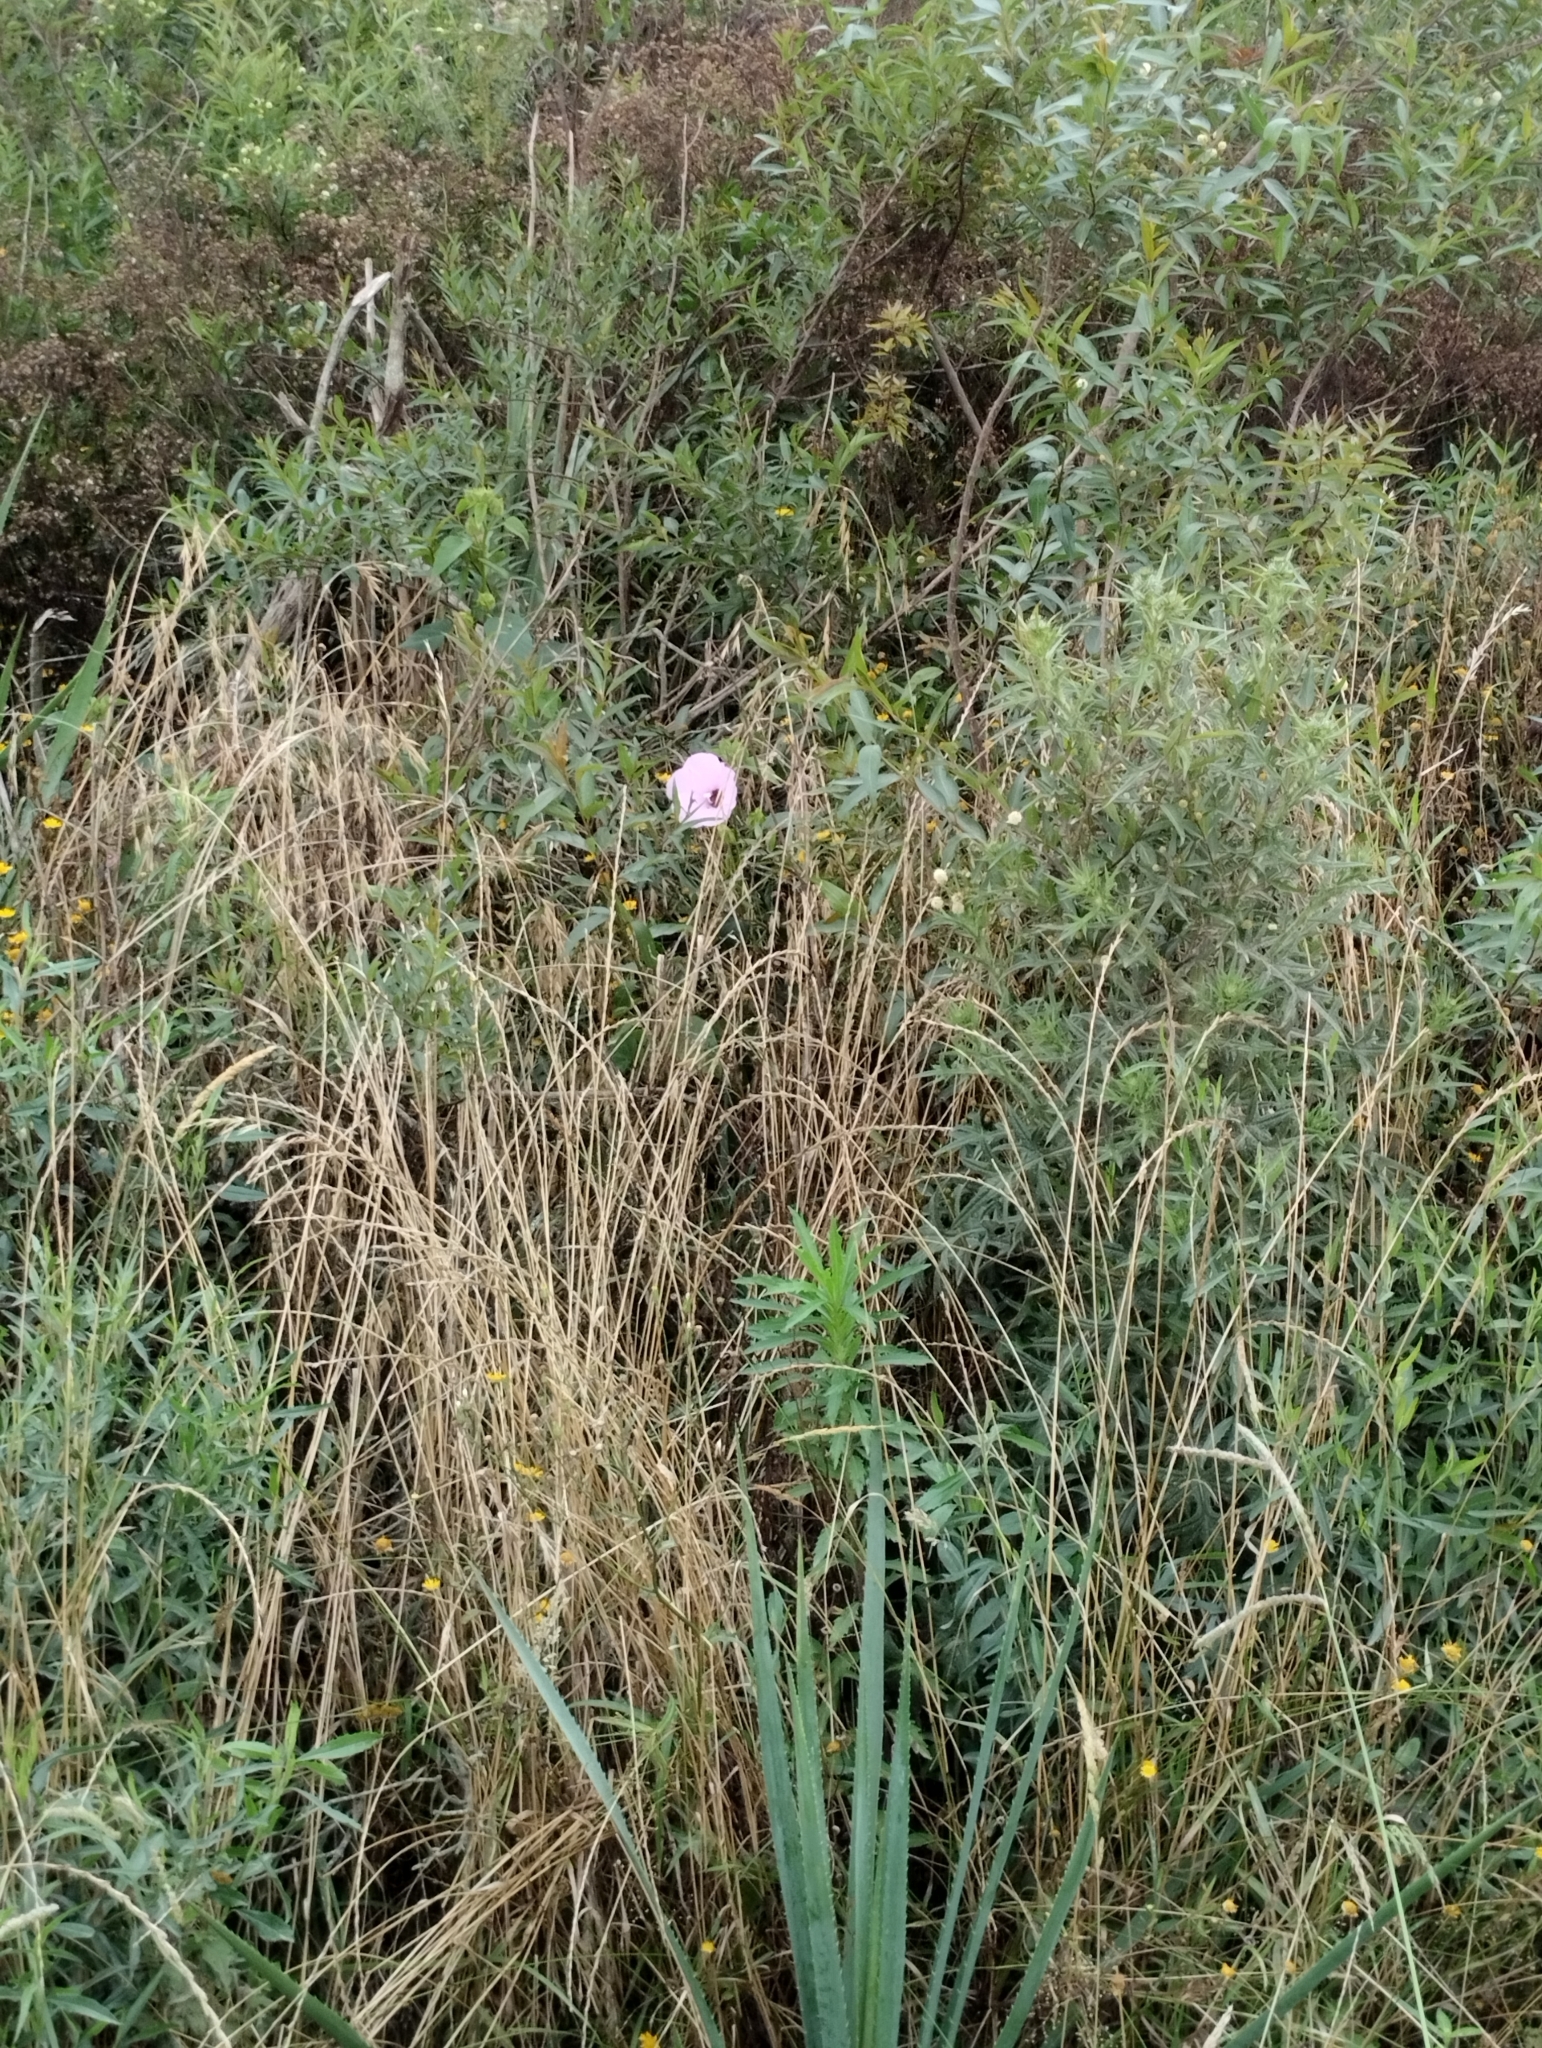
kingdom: Plantae
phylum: Tracheophyta
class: Magnoliopsida
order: Malvales
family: Malvaceae
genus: Hibiscus
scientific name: Hibiscus striatus
